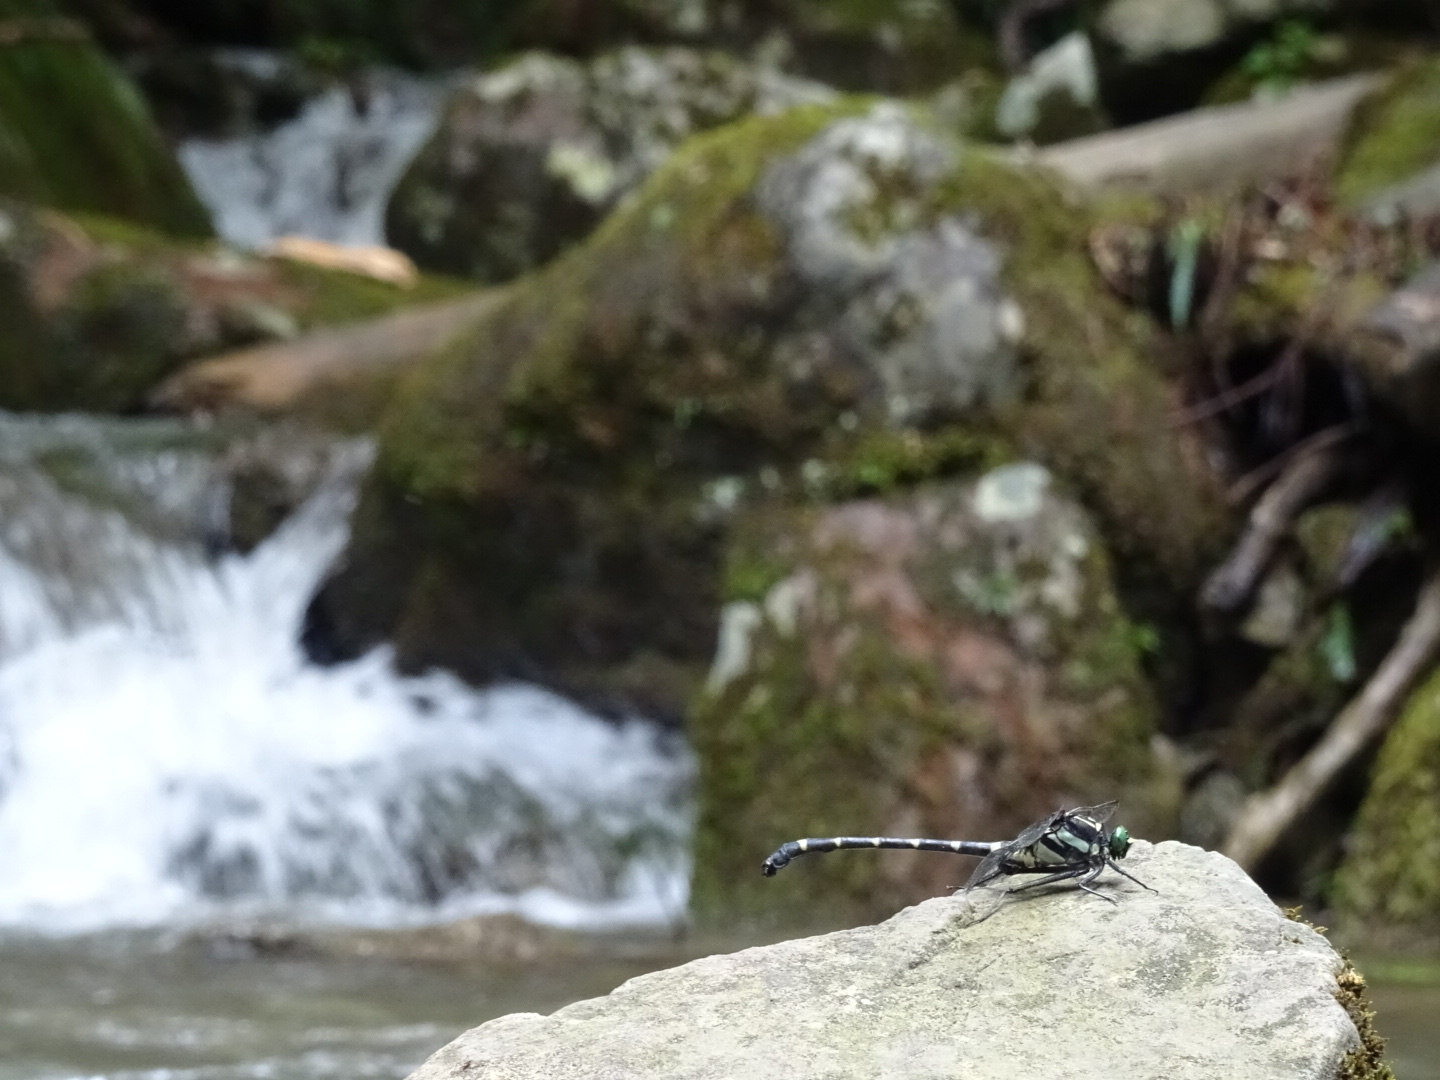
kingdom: Animalia
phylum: Arthropoda
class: Insecta
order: Odonata
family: Gomphidae
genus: Sieboldius
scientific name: Sieboldius albardae
